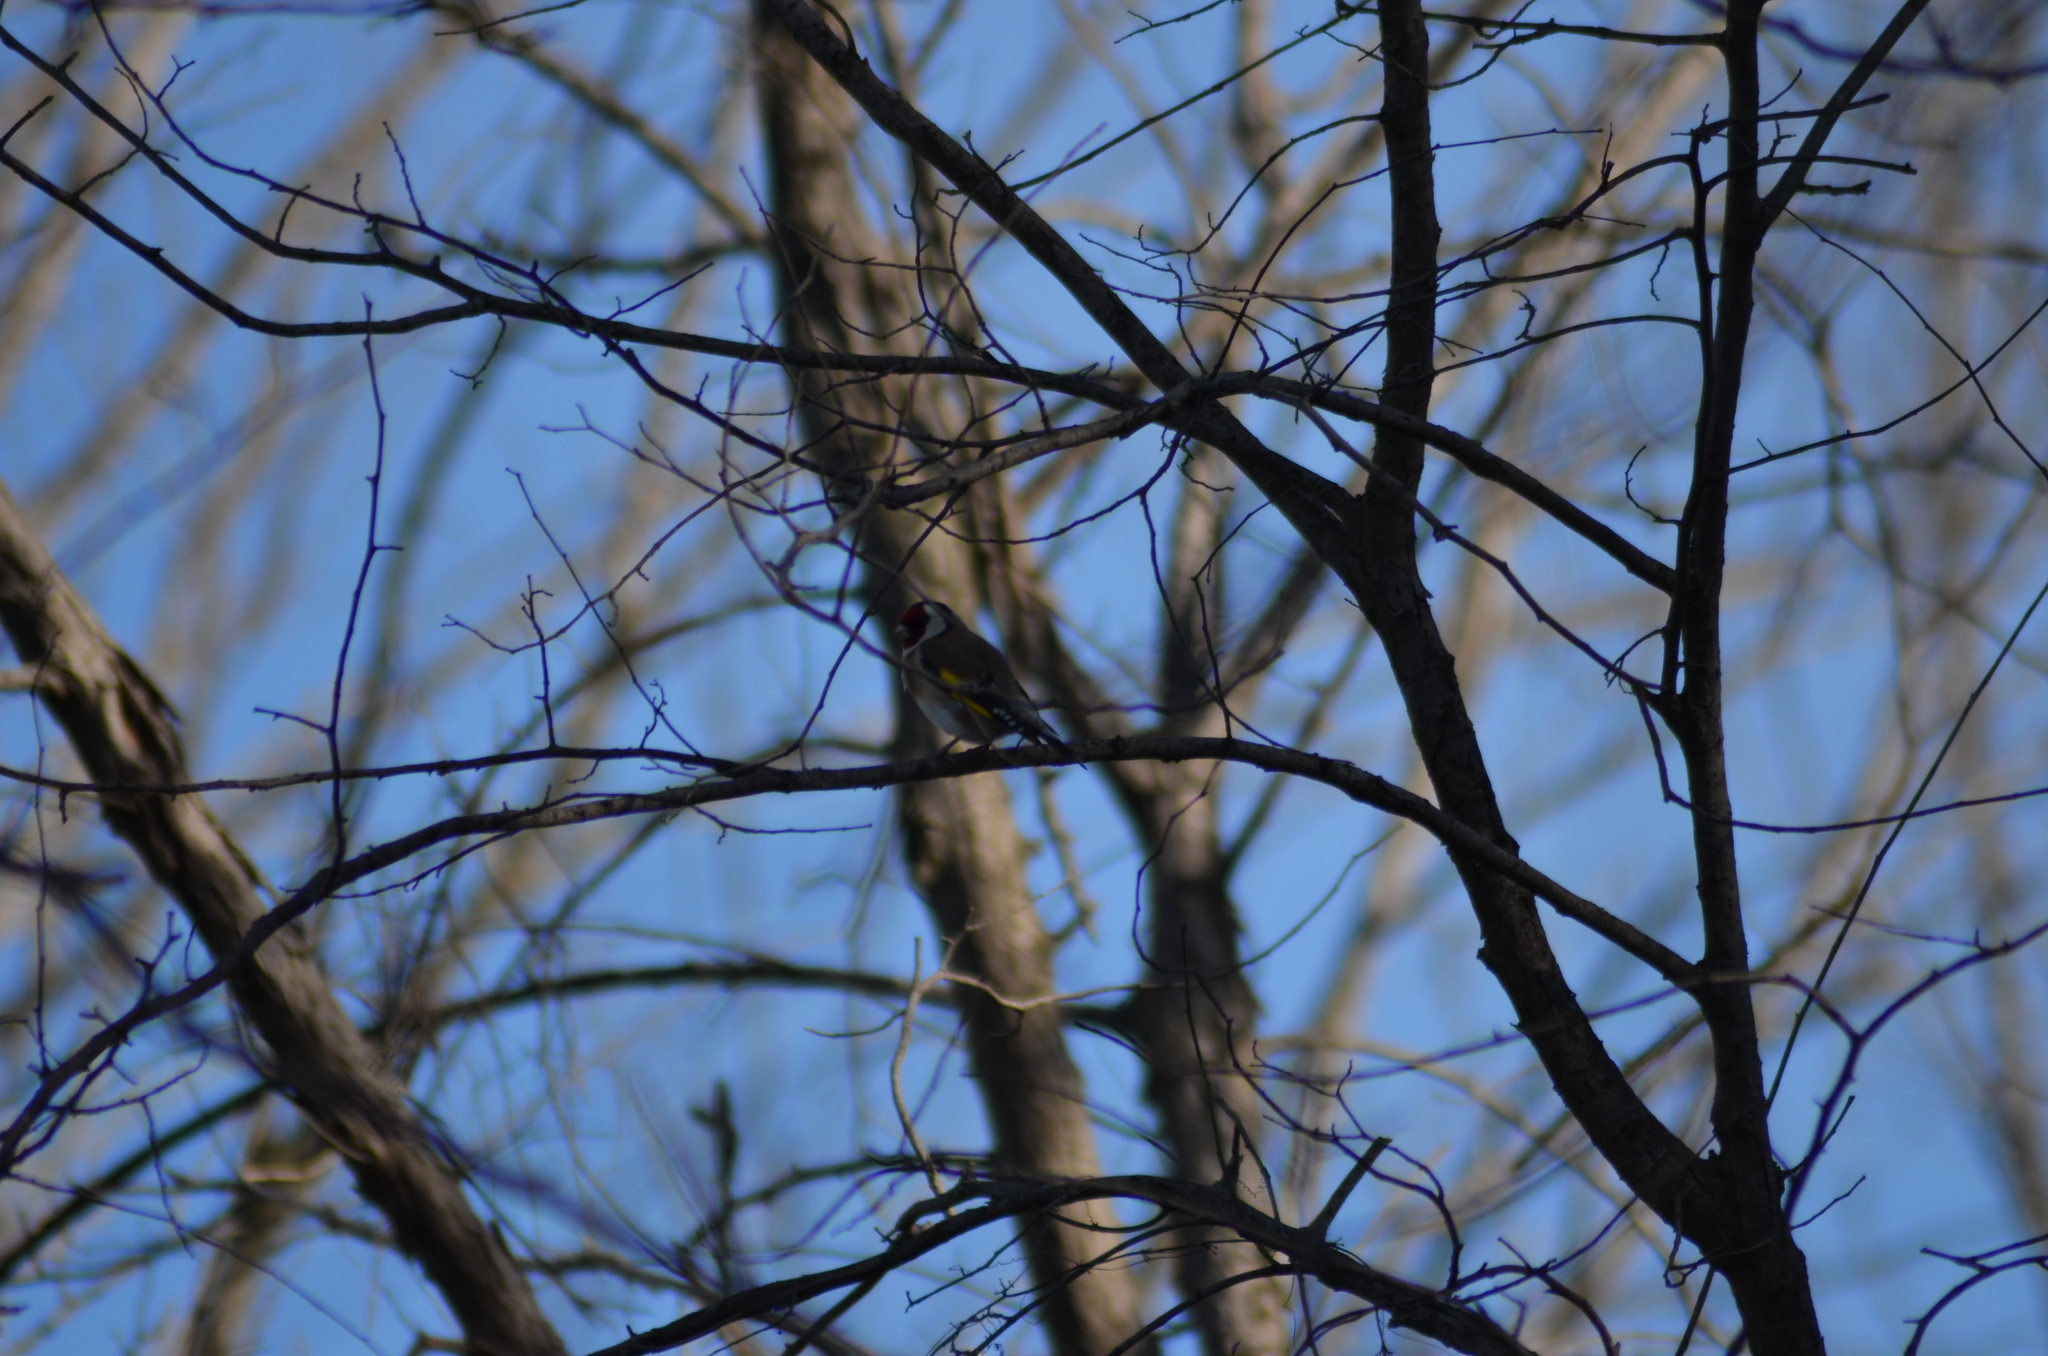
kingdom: Animalia
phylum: Chordata
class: Aves
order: Passeriformes
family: Fringillidae
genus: Carduelis
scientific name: Carduelis carduelis
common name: European goldfinch
